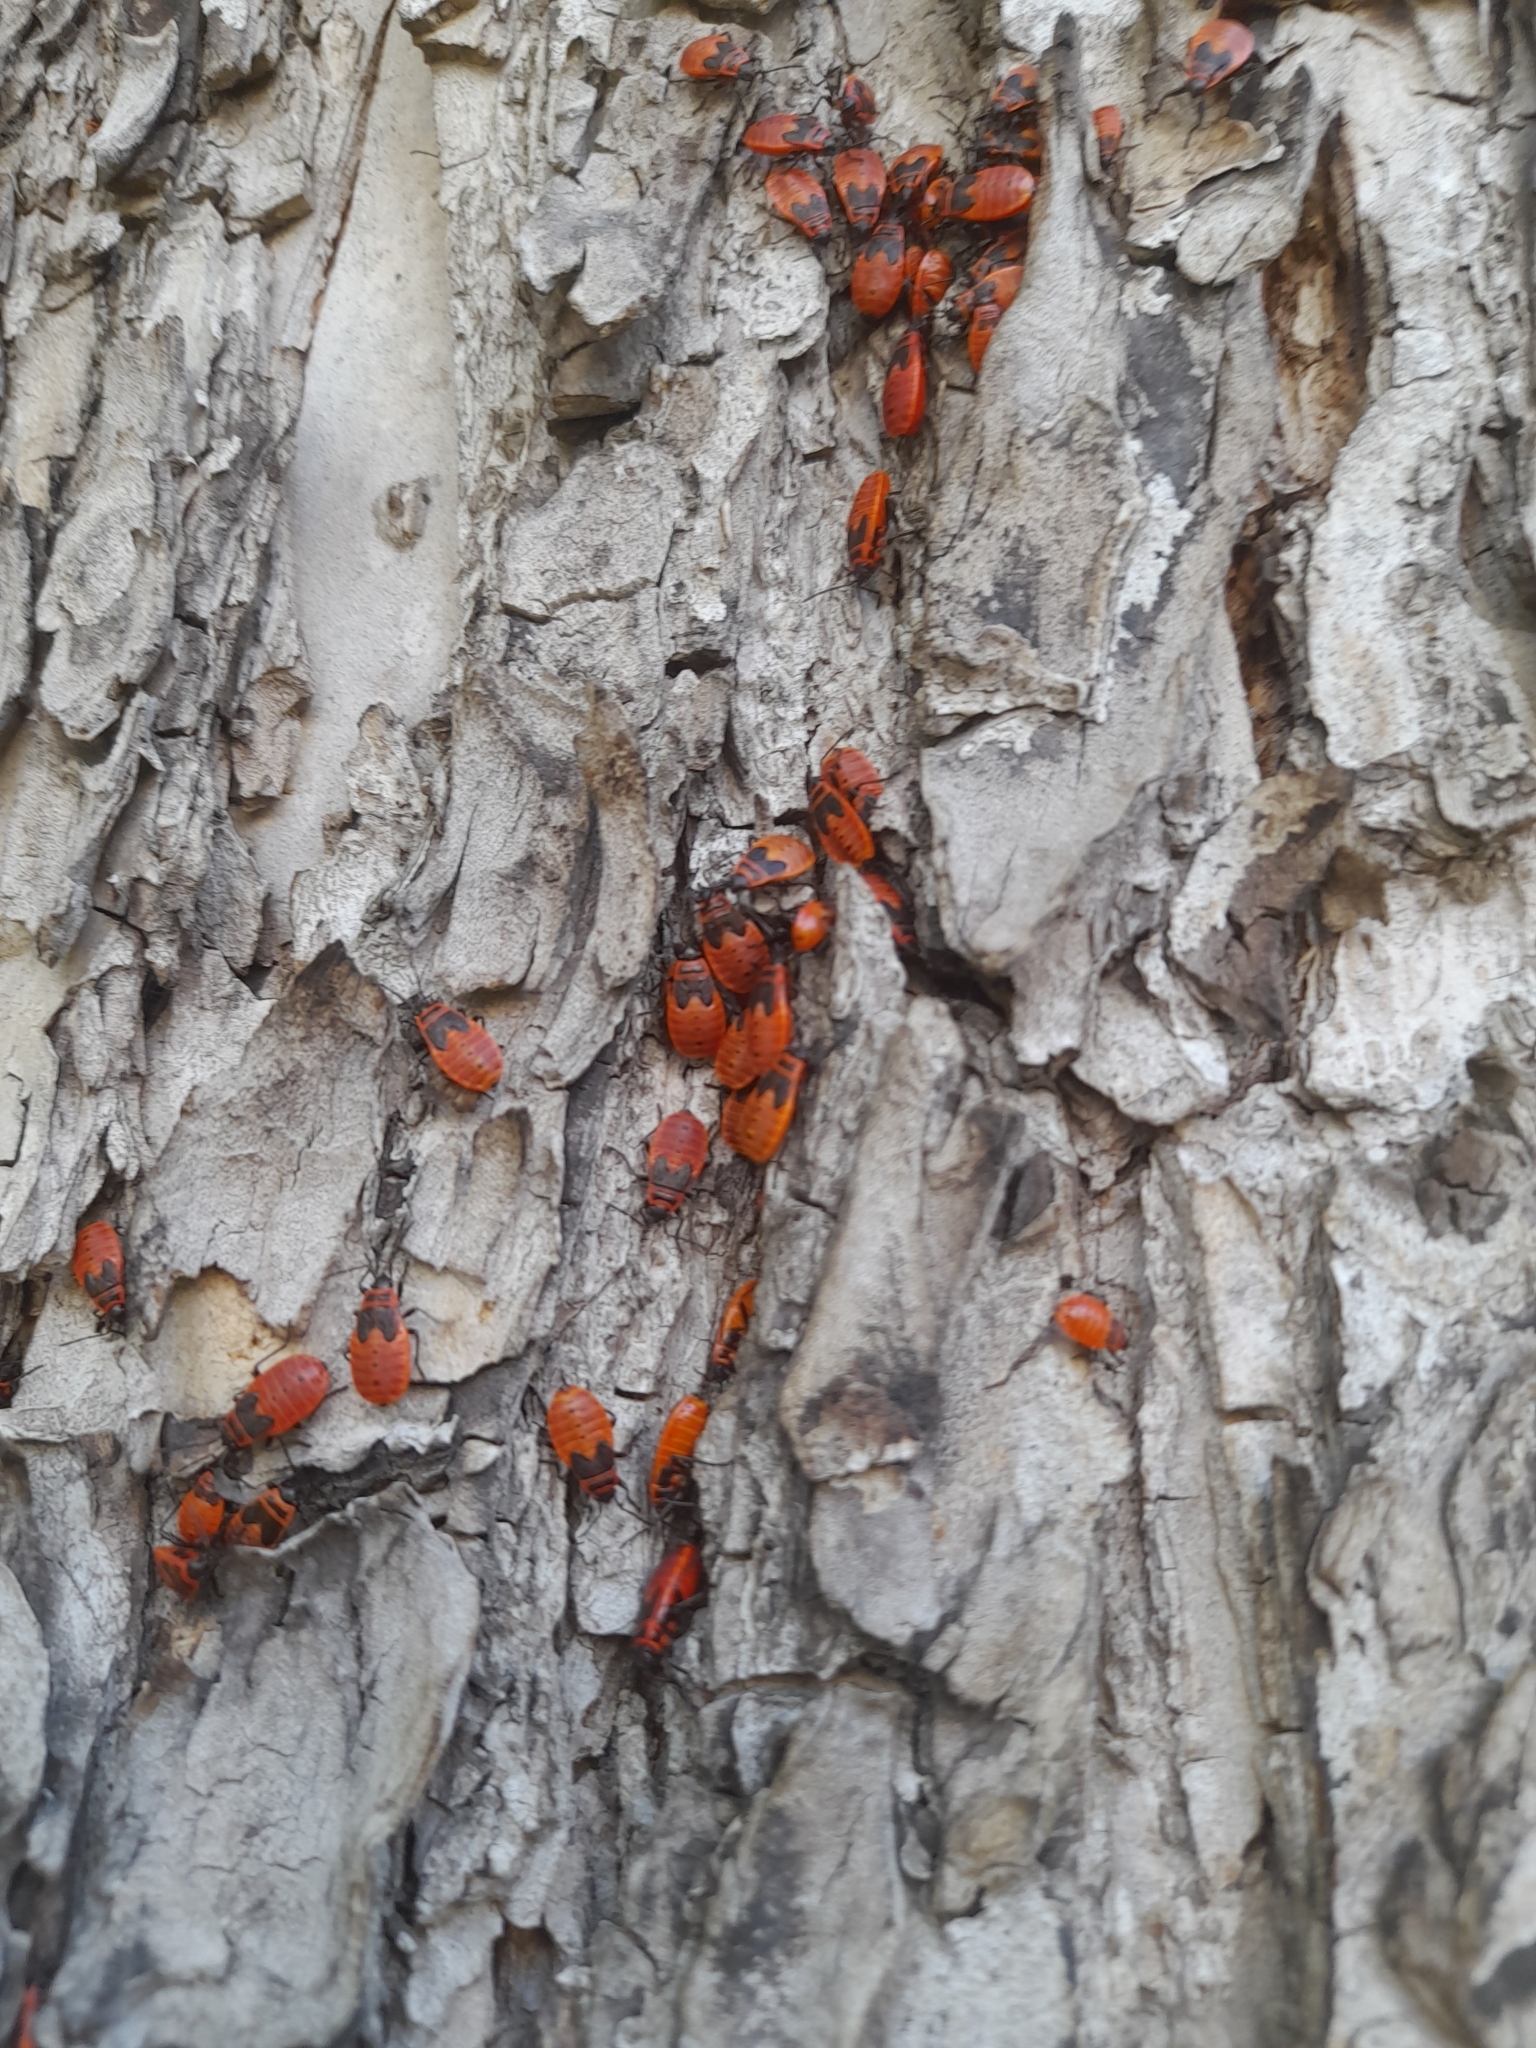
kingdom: Animalia
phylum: Arthropoda
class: Insecta
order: Hemiptera
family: Pyrrhocoridae
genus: Pyrrhocoris
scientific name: Pyrrhocoris apterus
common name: Firebug
